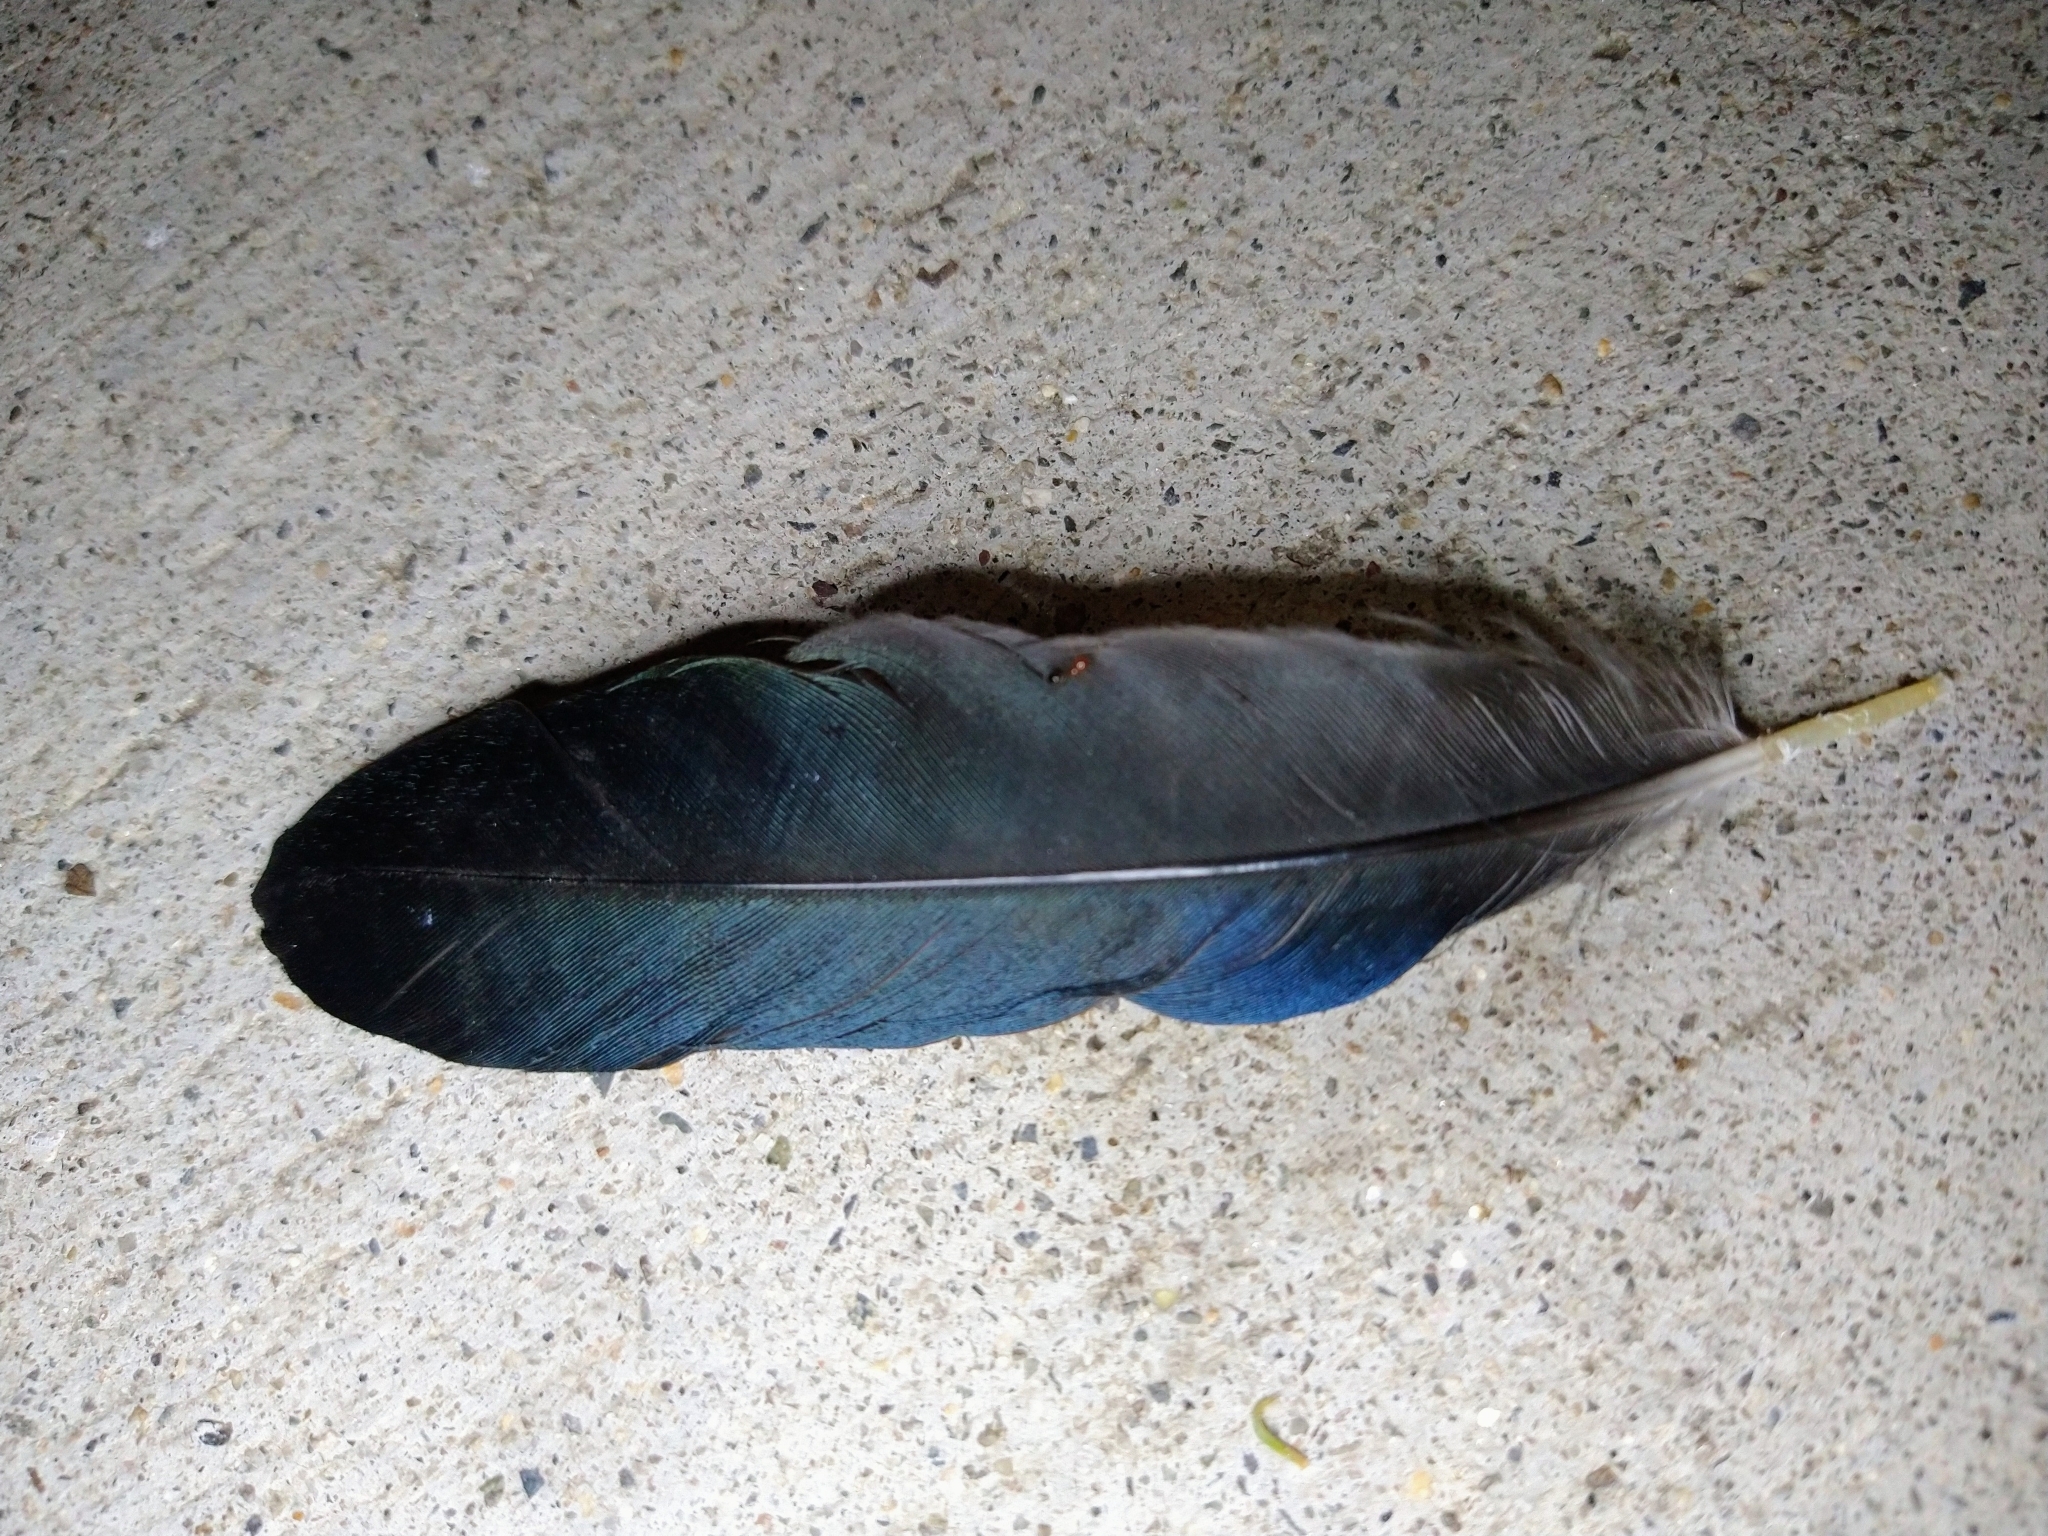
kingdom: Animalia
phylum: Chordata
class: Aves
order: Passeriformes
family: Corvidae
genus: Pica
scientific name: Pica nuttalli
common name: Yellow-billed magpie
